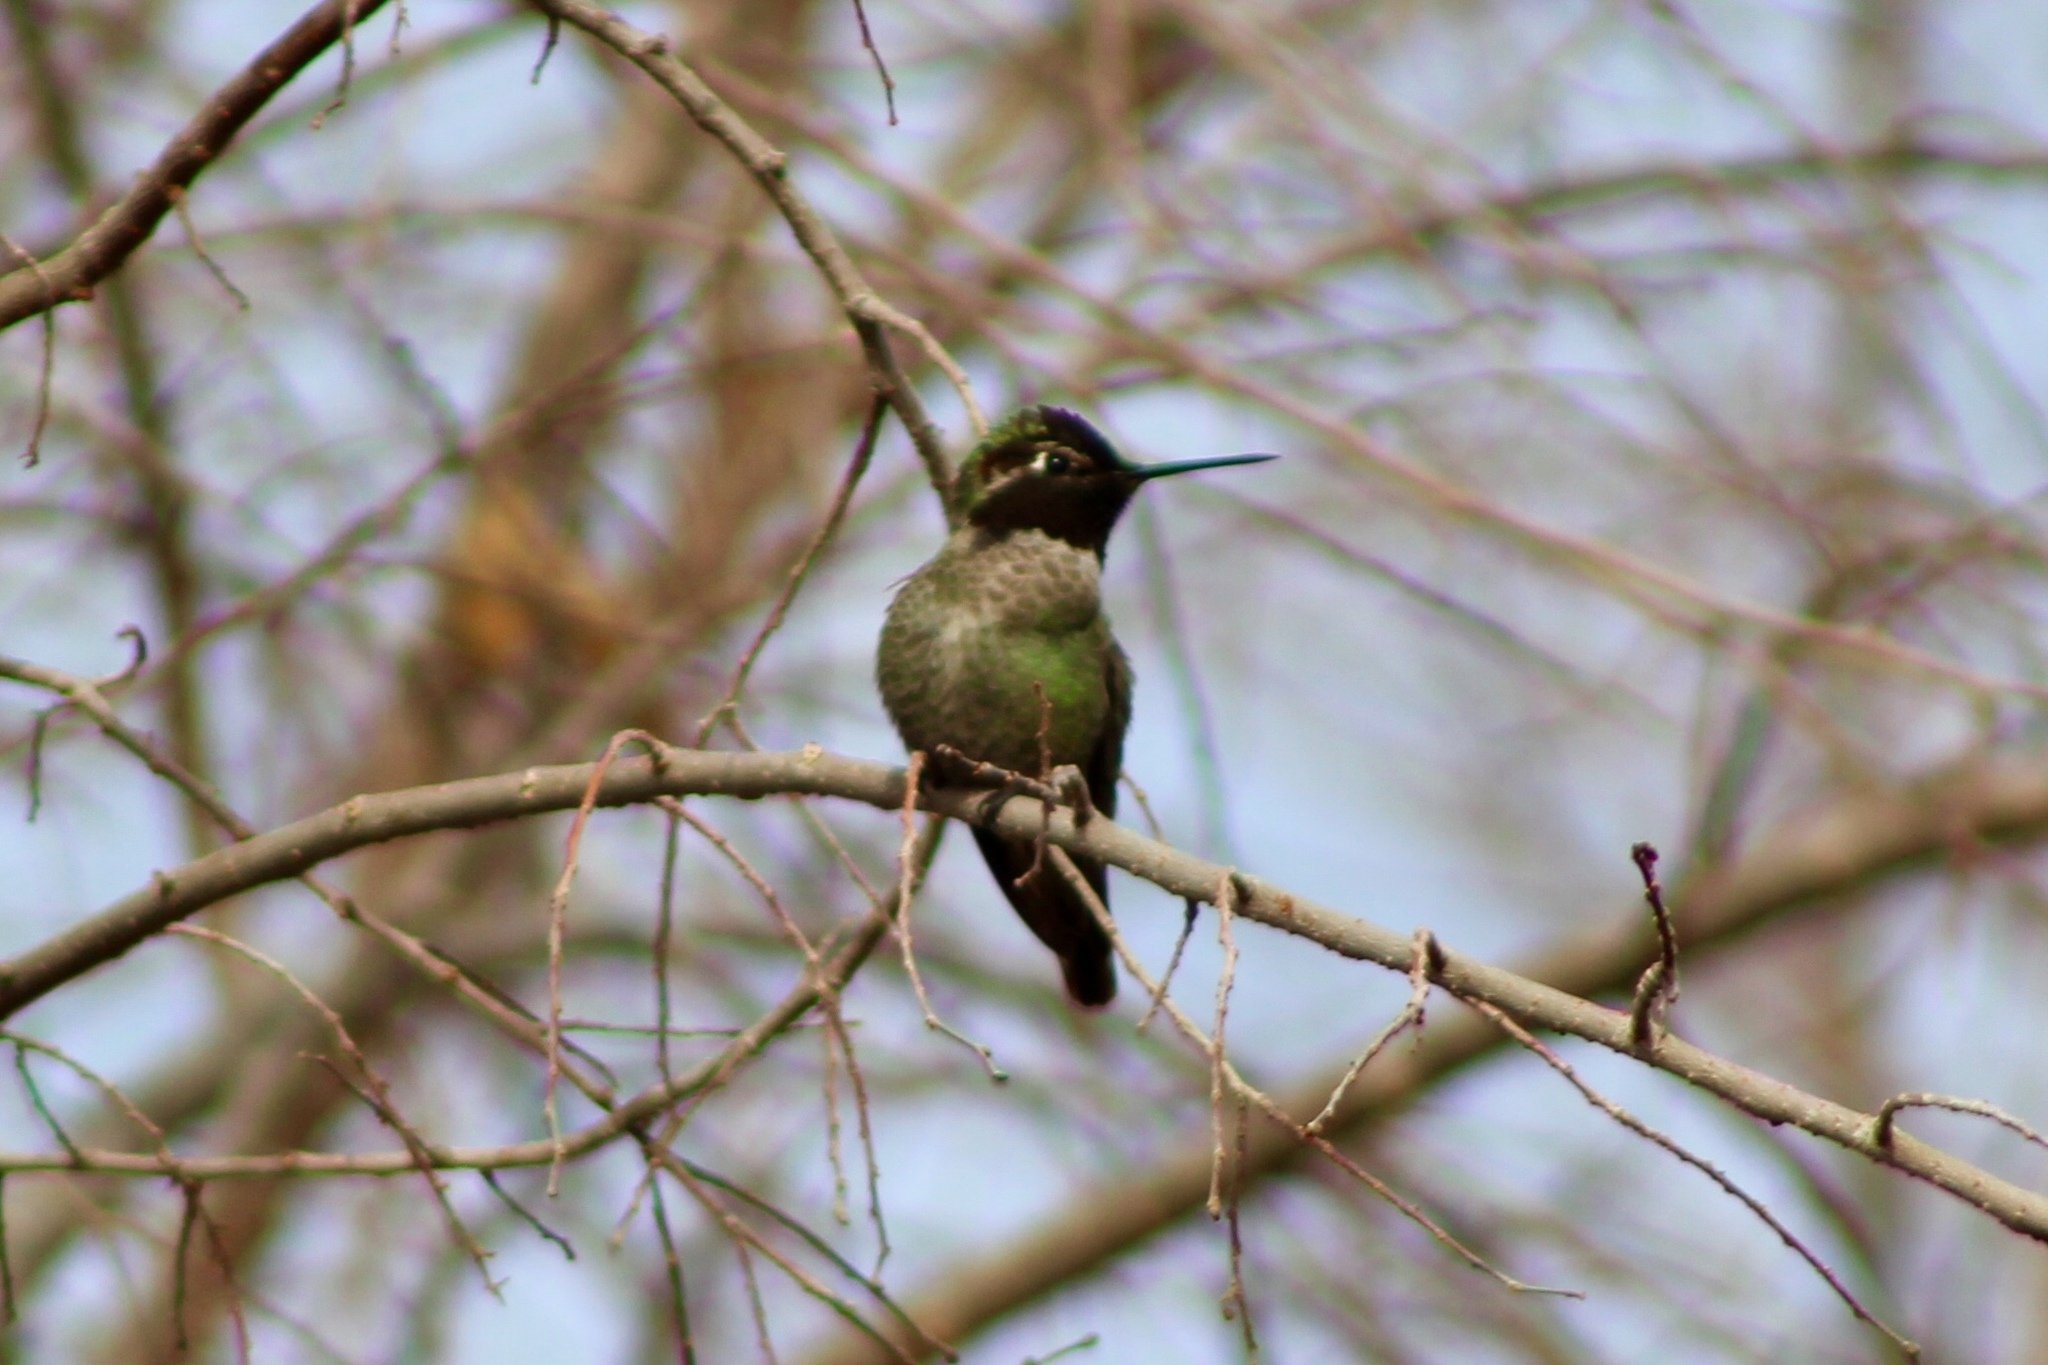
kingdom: Animalia
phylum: Chordata
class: Aves
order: Apodiformes
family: Trochilidae
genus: Calypte
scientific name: Calypte anna
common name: Anna's hummingbird
